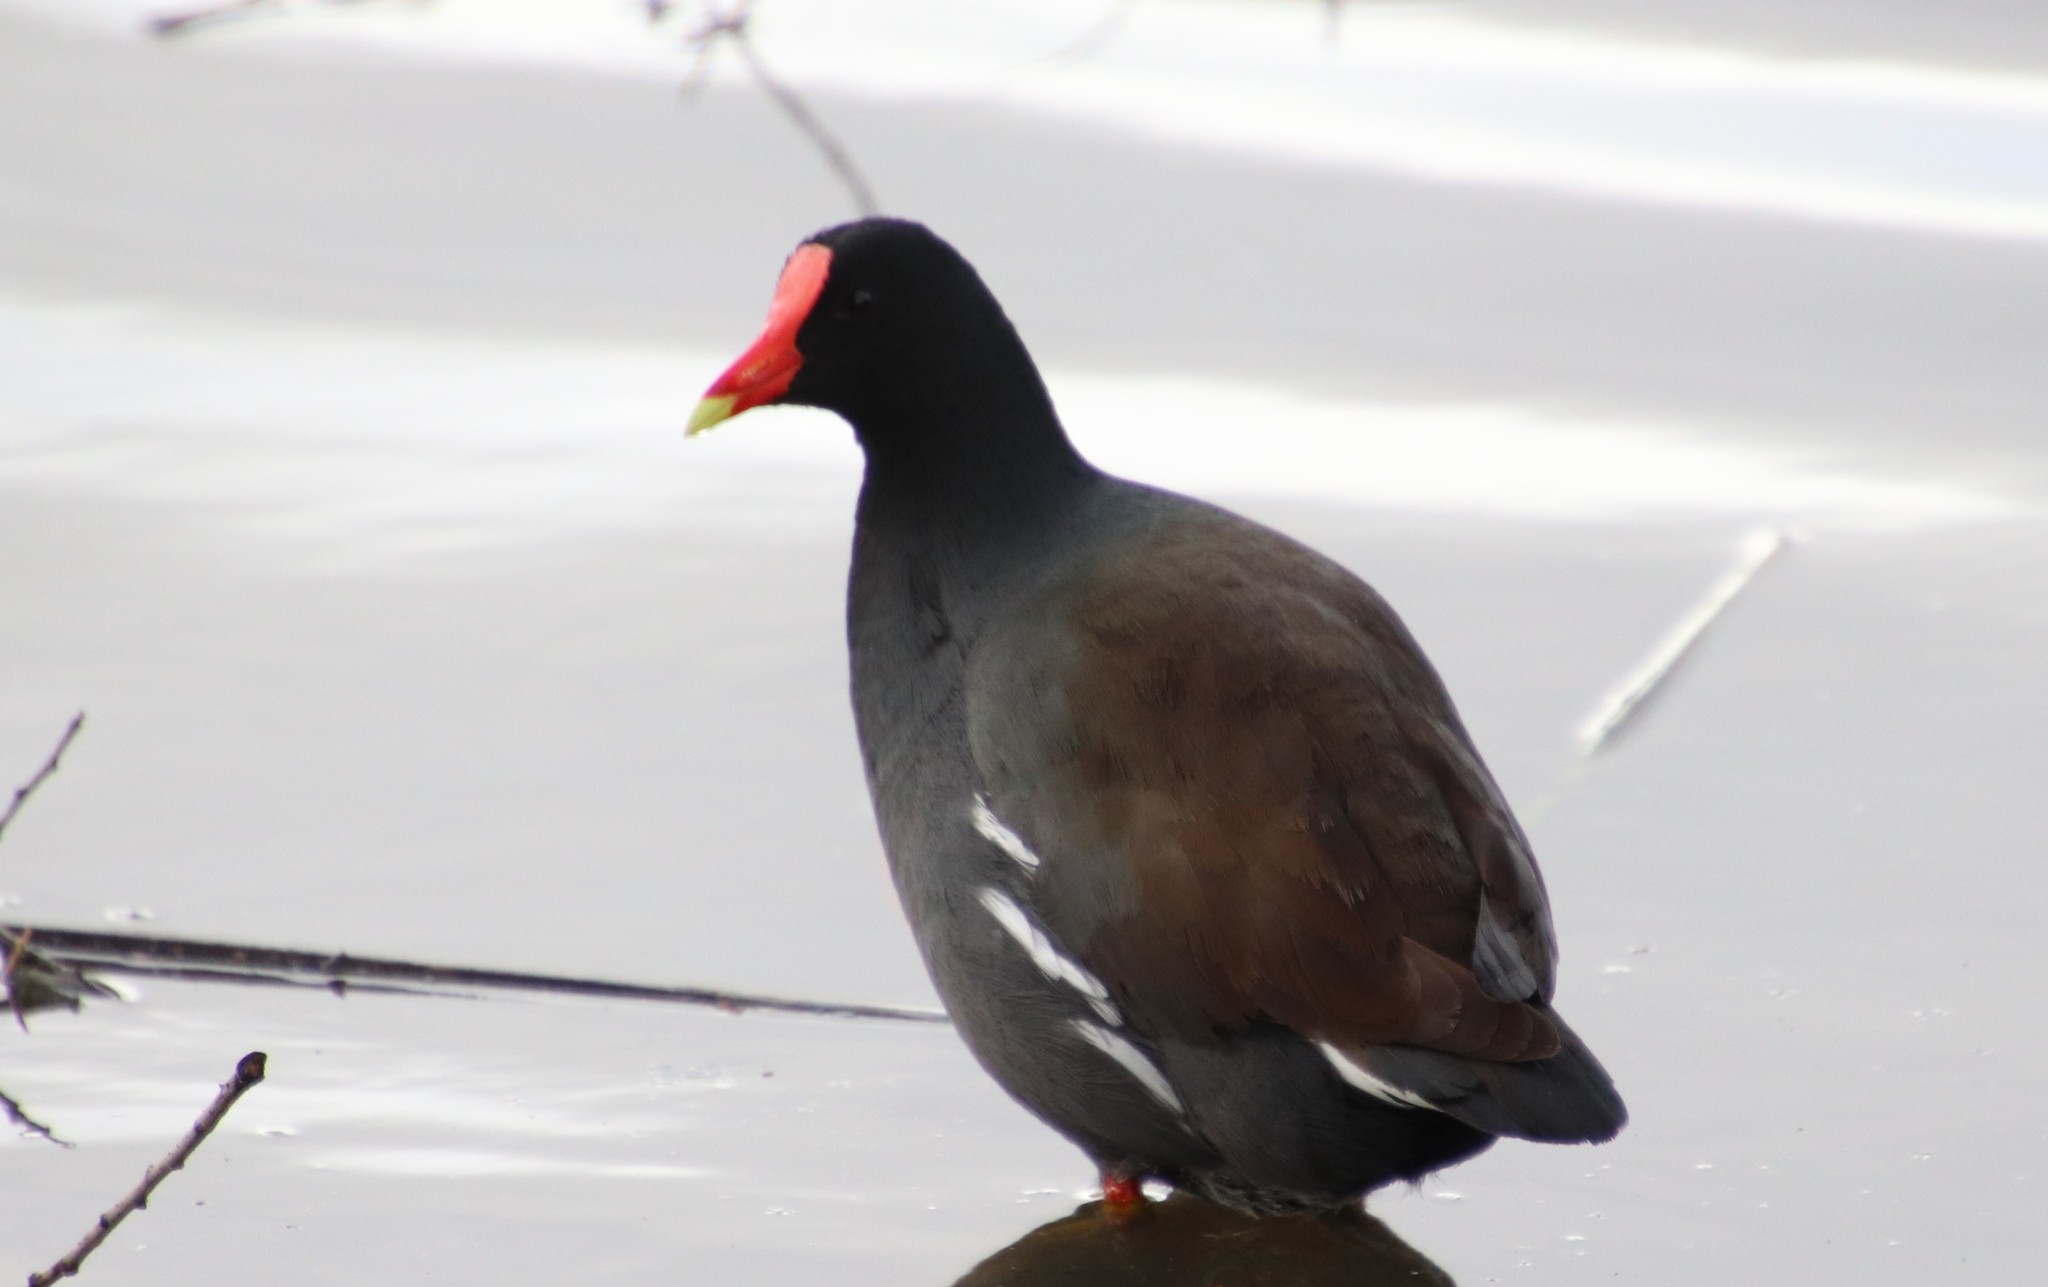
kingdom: Animalia
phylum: Chordata
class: Aves
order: Gruiformes
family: Rallidae
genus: Gallinula
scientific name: Gallinula chloropus
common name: Common moorhen
